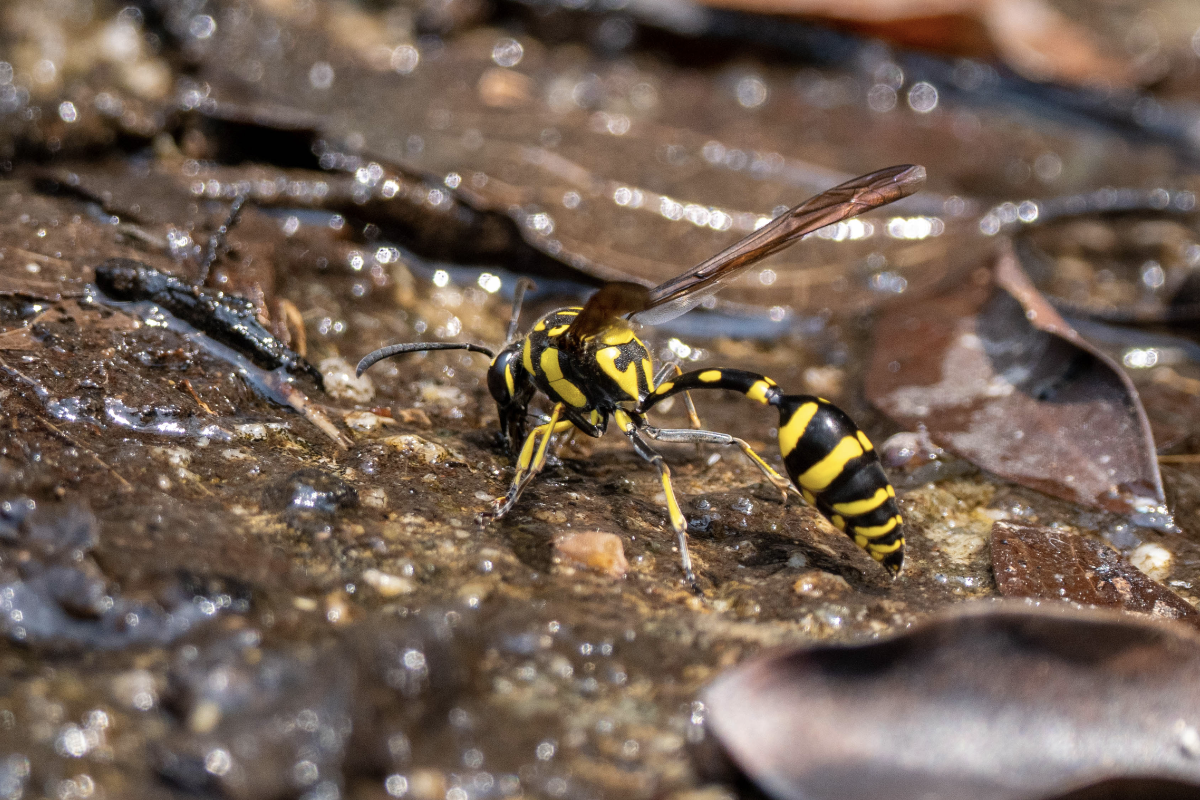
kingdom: Animalia
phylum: Arthropoda
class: Insecta
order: Hymenoptera
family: Eumenidae
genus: Phimenes
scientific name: Phimenes flavopictus
